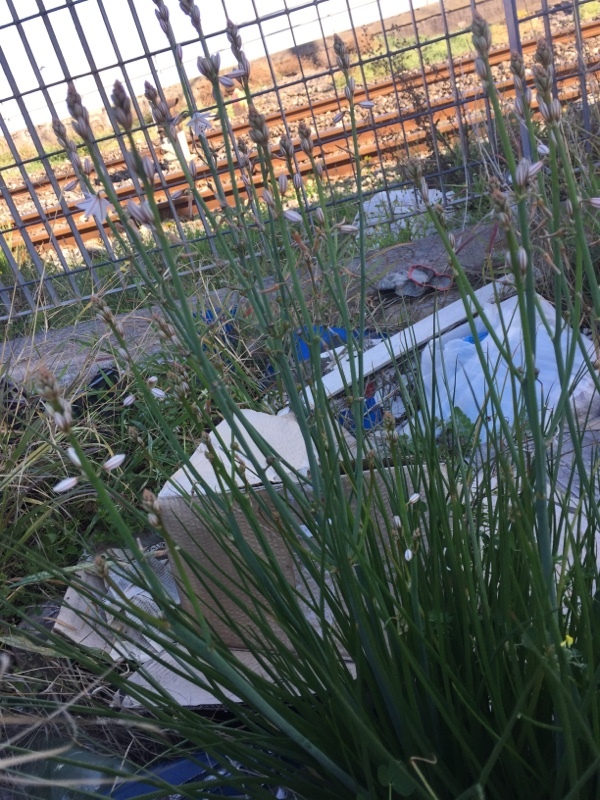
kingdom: Plantae
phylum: Tracheophyta
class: Liliopsida
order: Asparagales
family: Asphodelaceae
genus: Asphodelus
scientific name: Asphodelus fistulosus
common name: Onionweed
